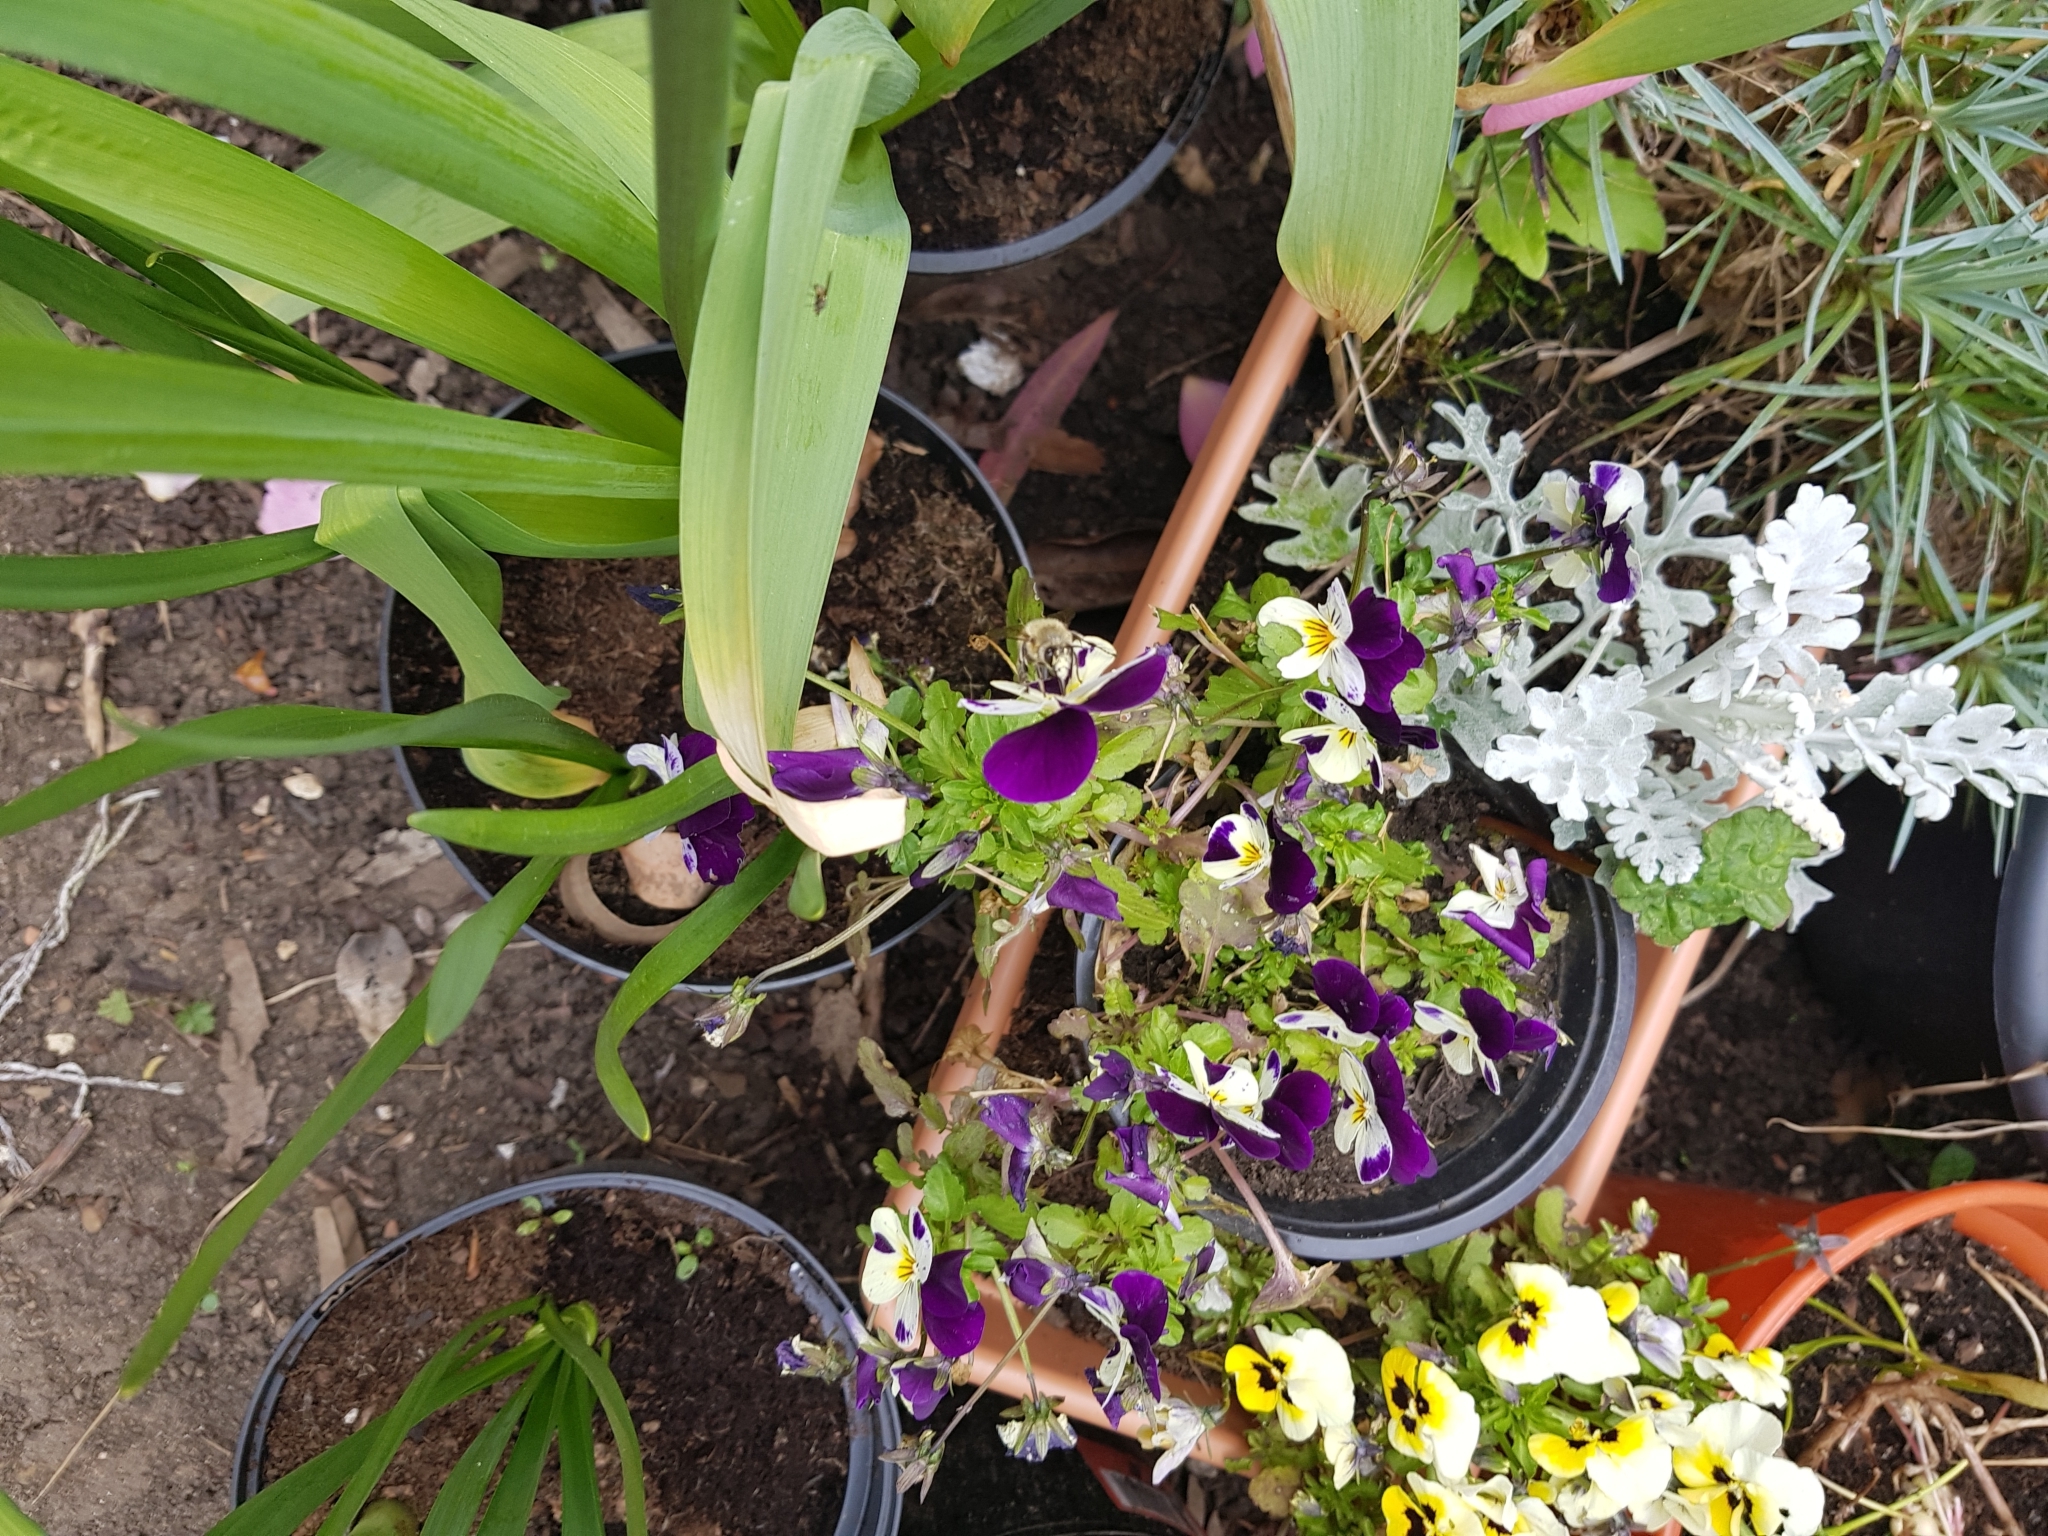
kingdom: Animalia
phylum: Arthropoda
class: Insecta
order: Hymenoptera
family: Apidae
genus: Anthophora
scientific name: Anthophora plumipes
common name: Hairy-footed flower bee
